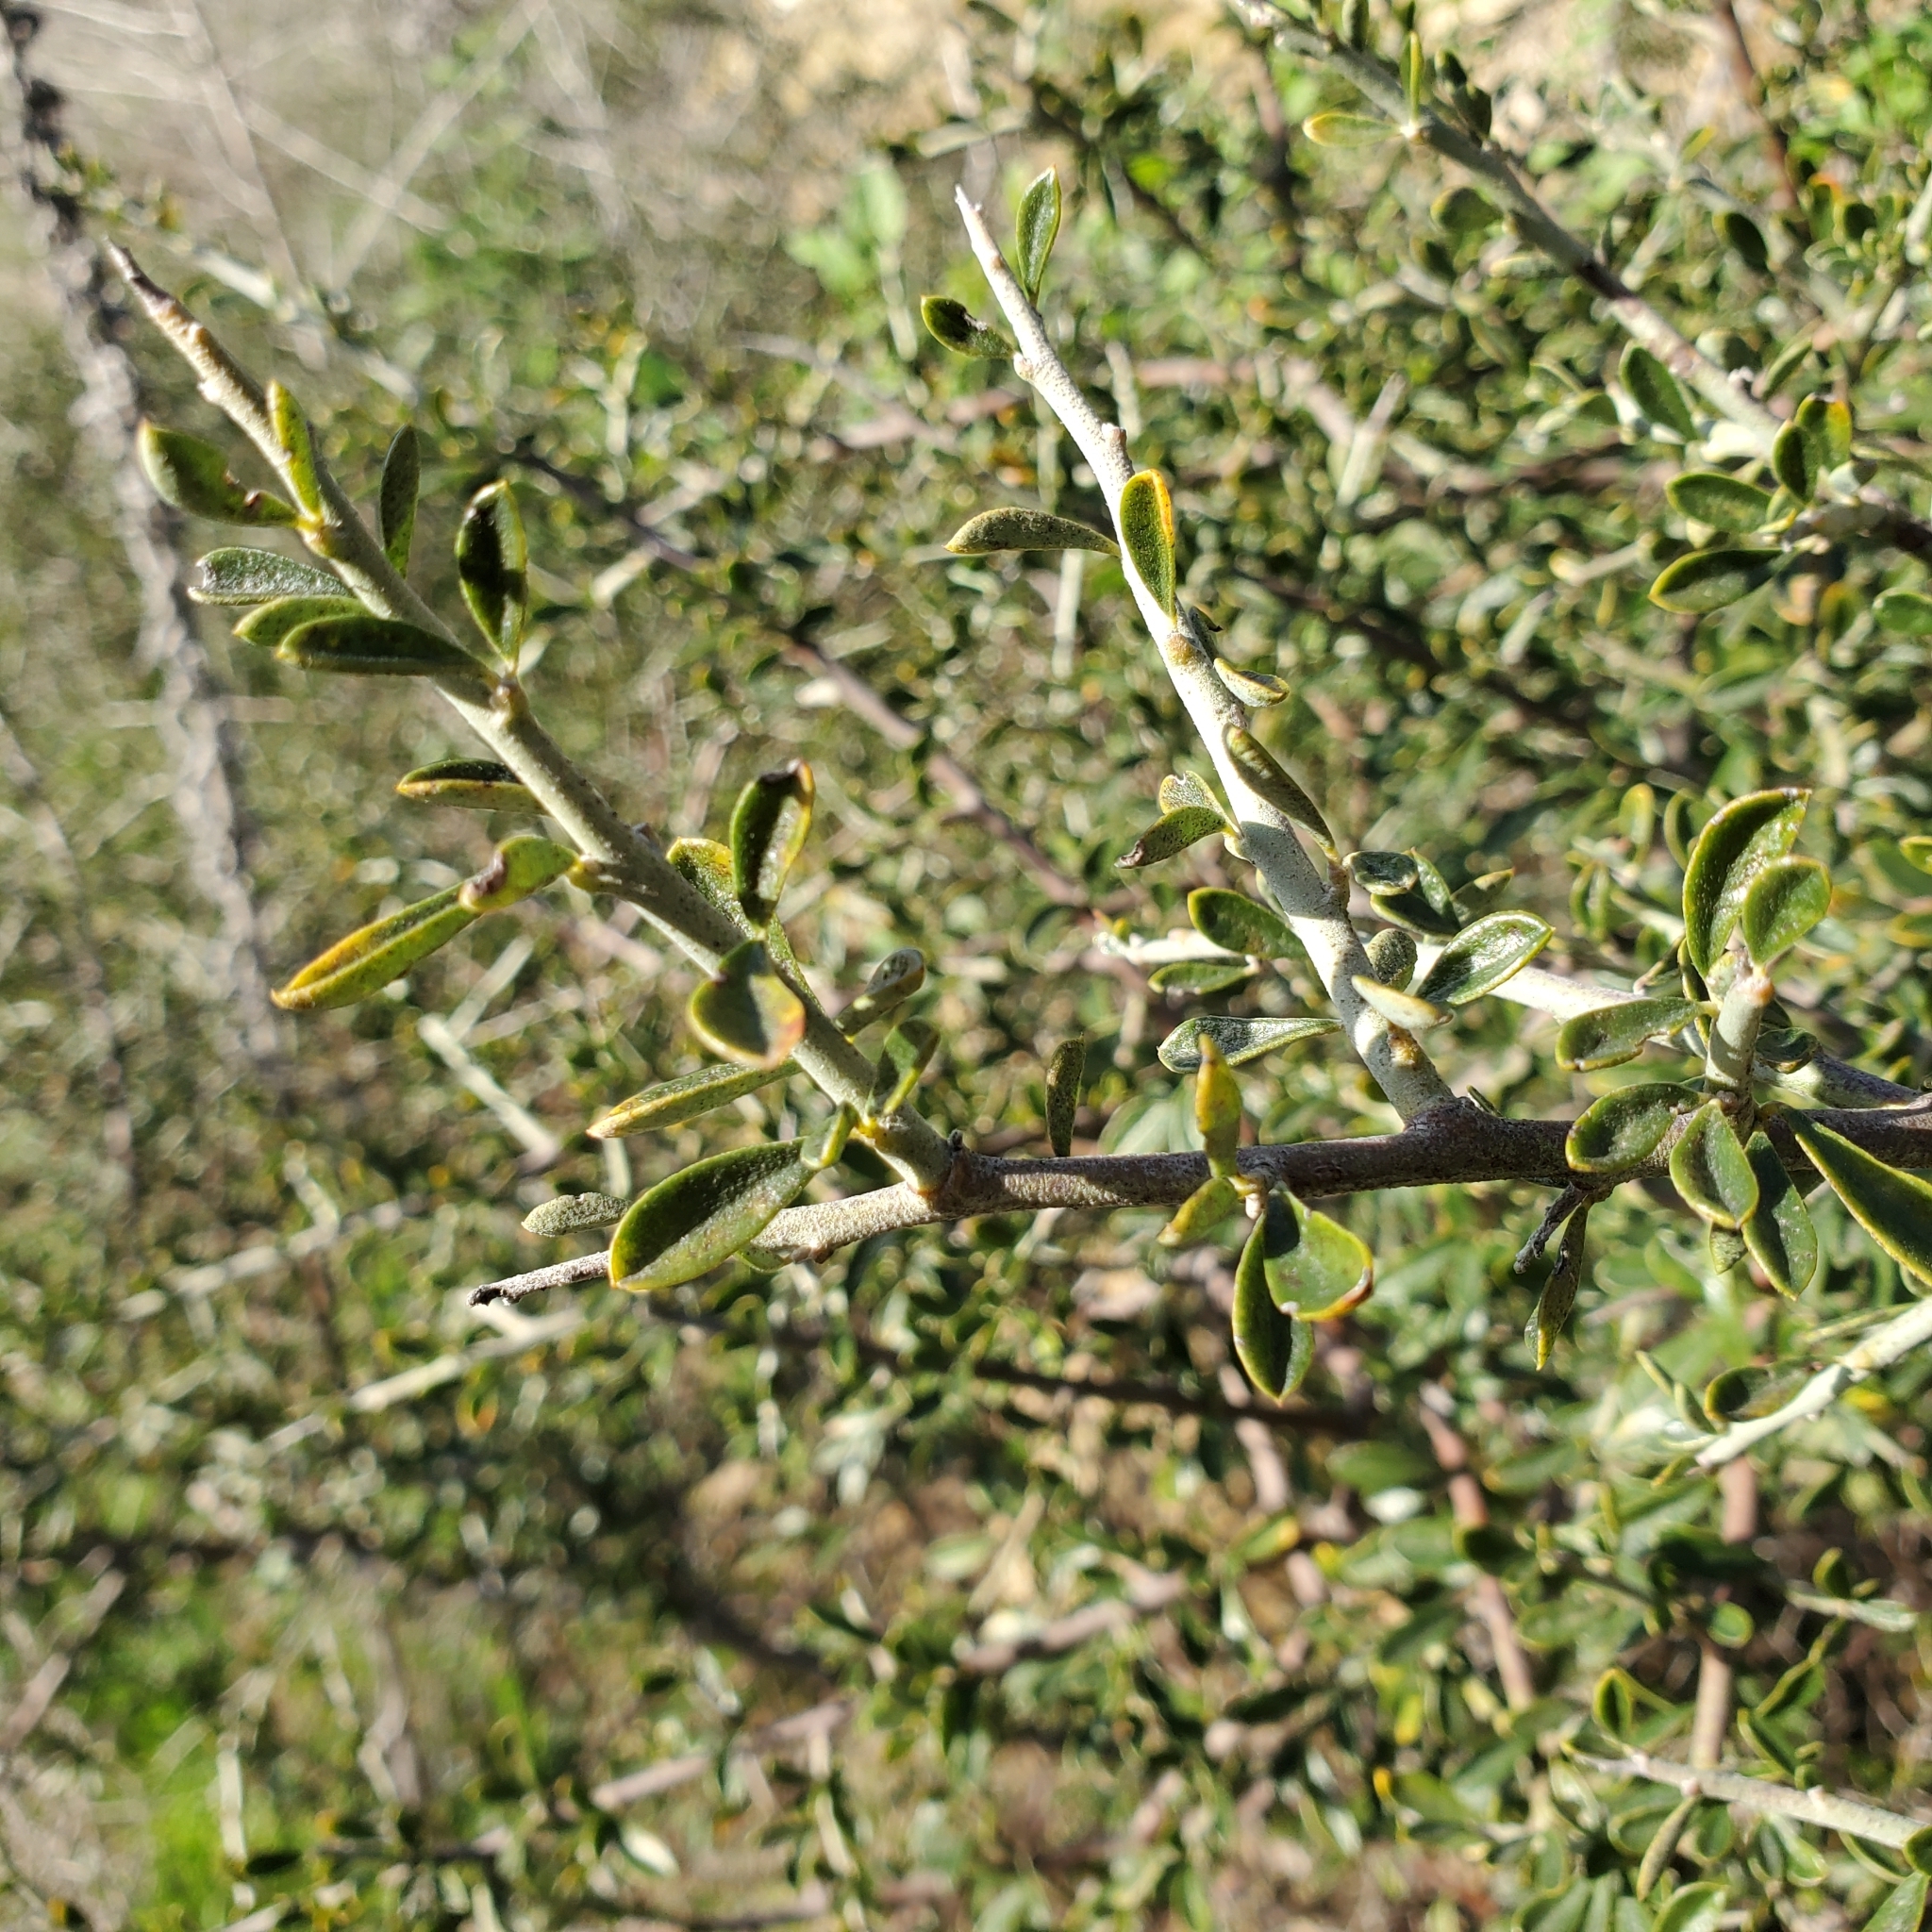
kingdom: Plantae
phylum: Tracheophyta
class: Magnoliopsida
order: Fabales
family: Fabaceae
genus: Pickeringia
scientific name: Pickeringia montana
